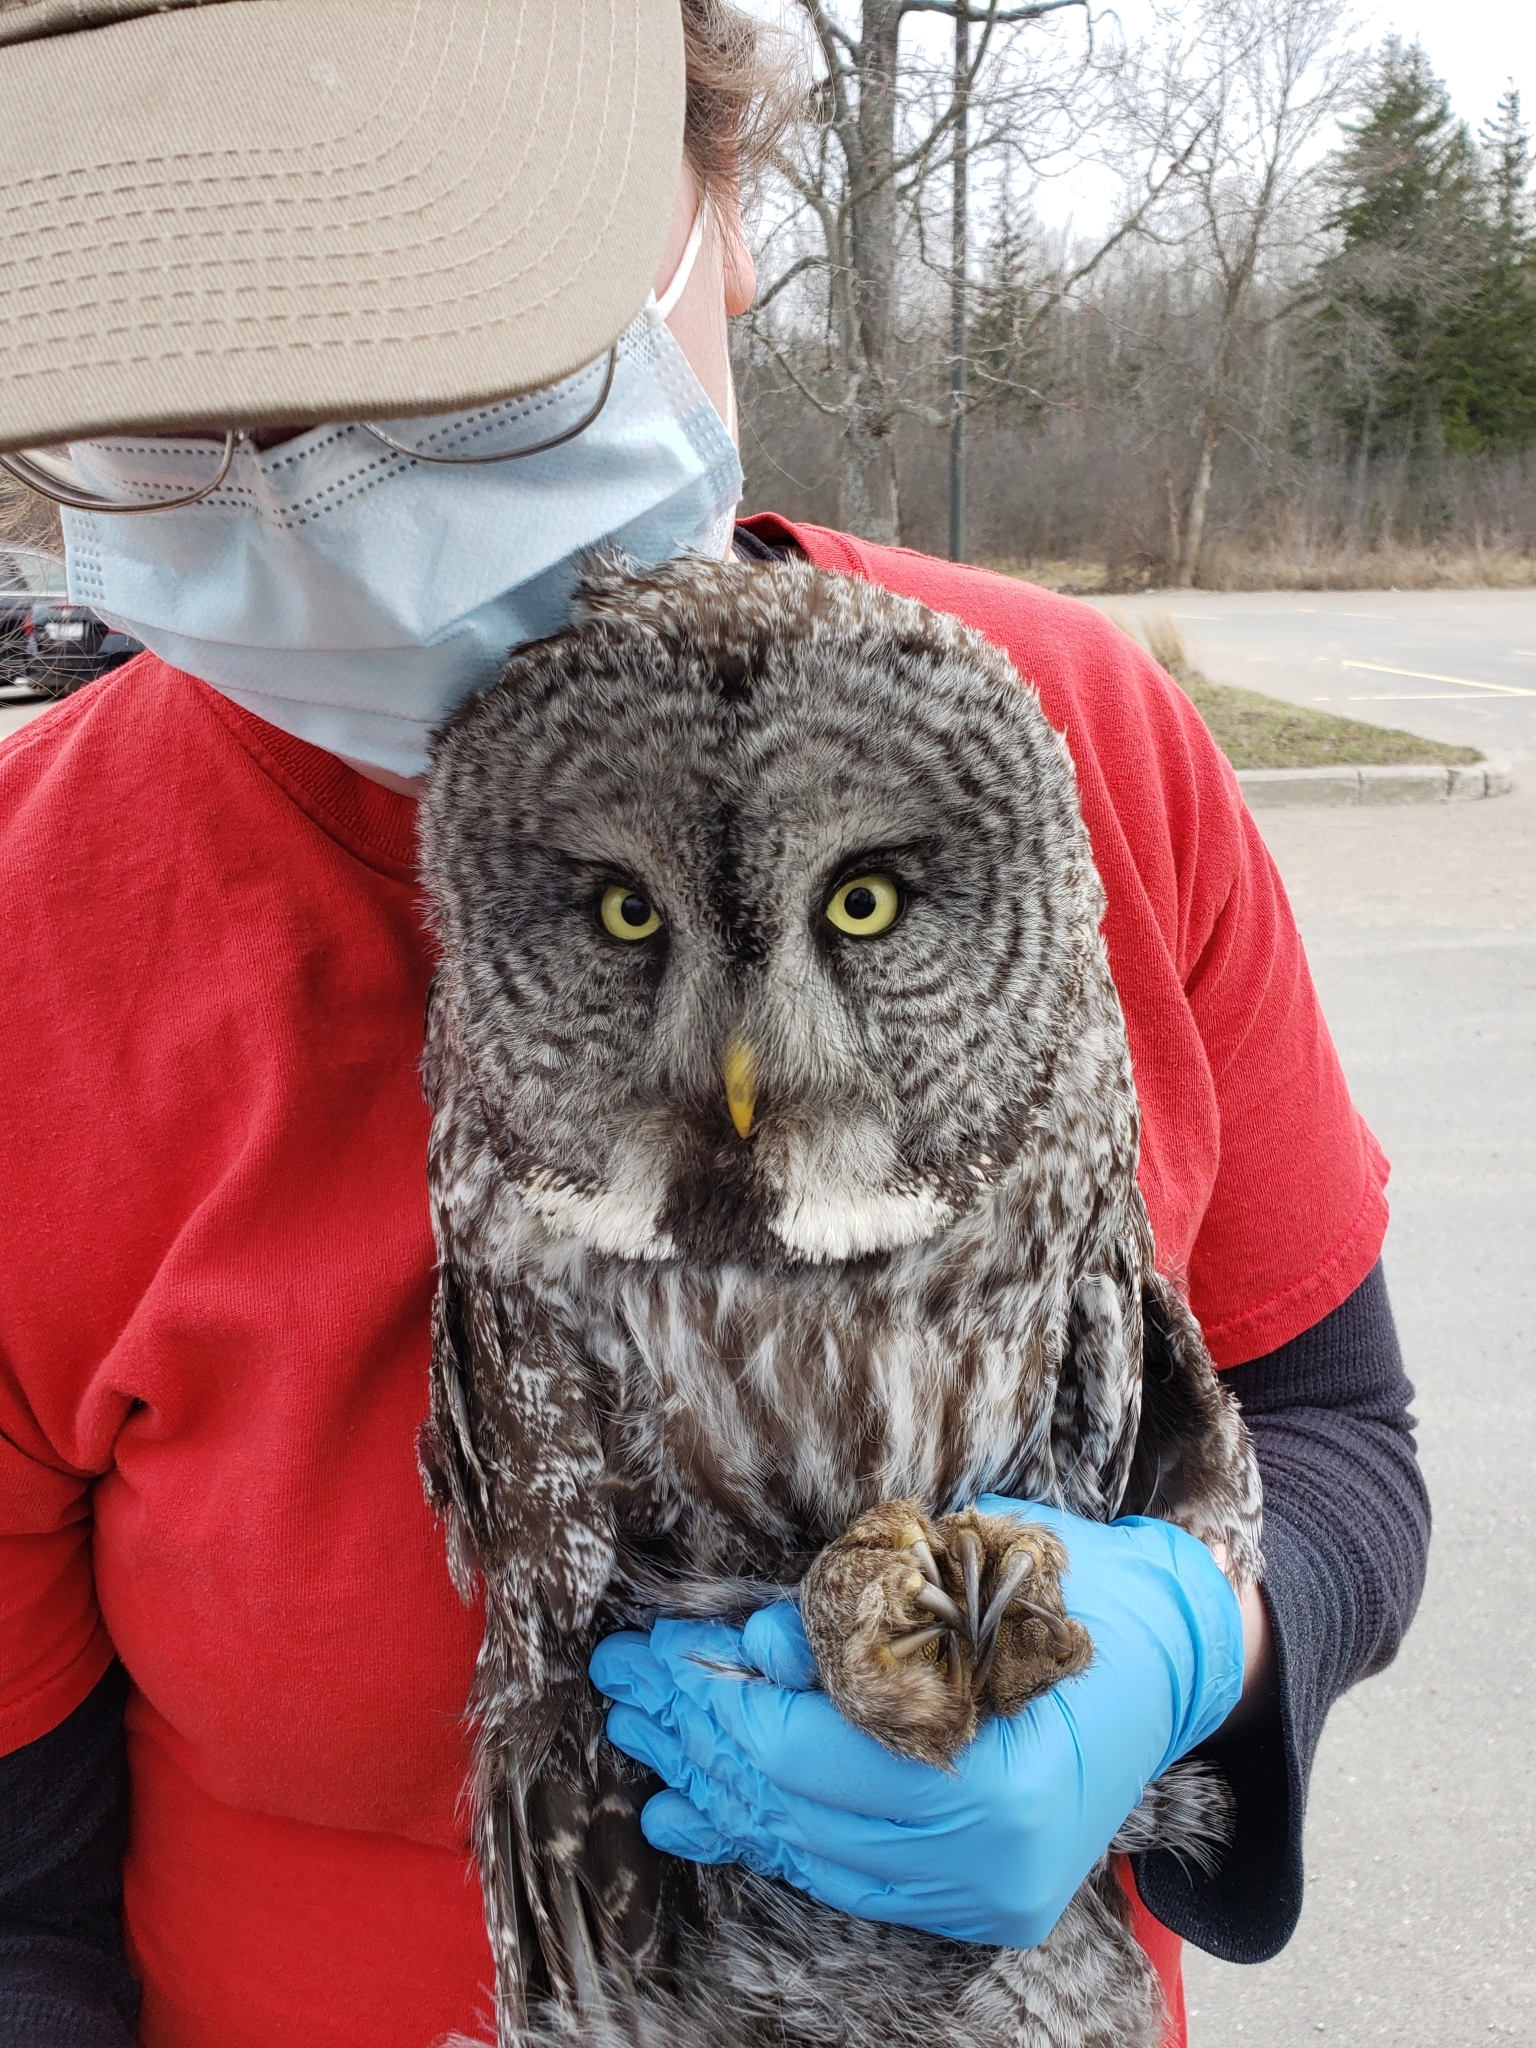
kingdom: Animalia
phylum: Chordata
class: Aves
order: Strigiformes
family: Strigidae
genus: Strix
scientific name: Strix nebulosa
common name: Great grey owl
